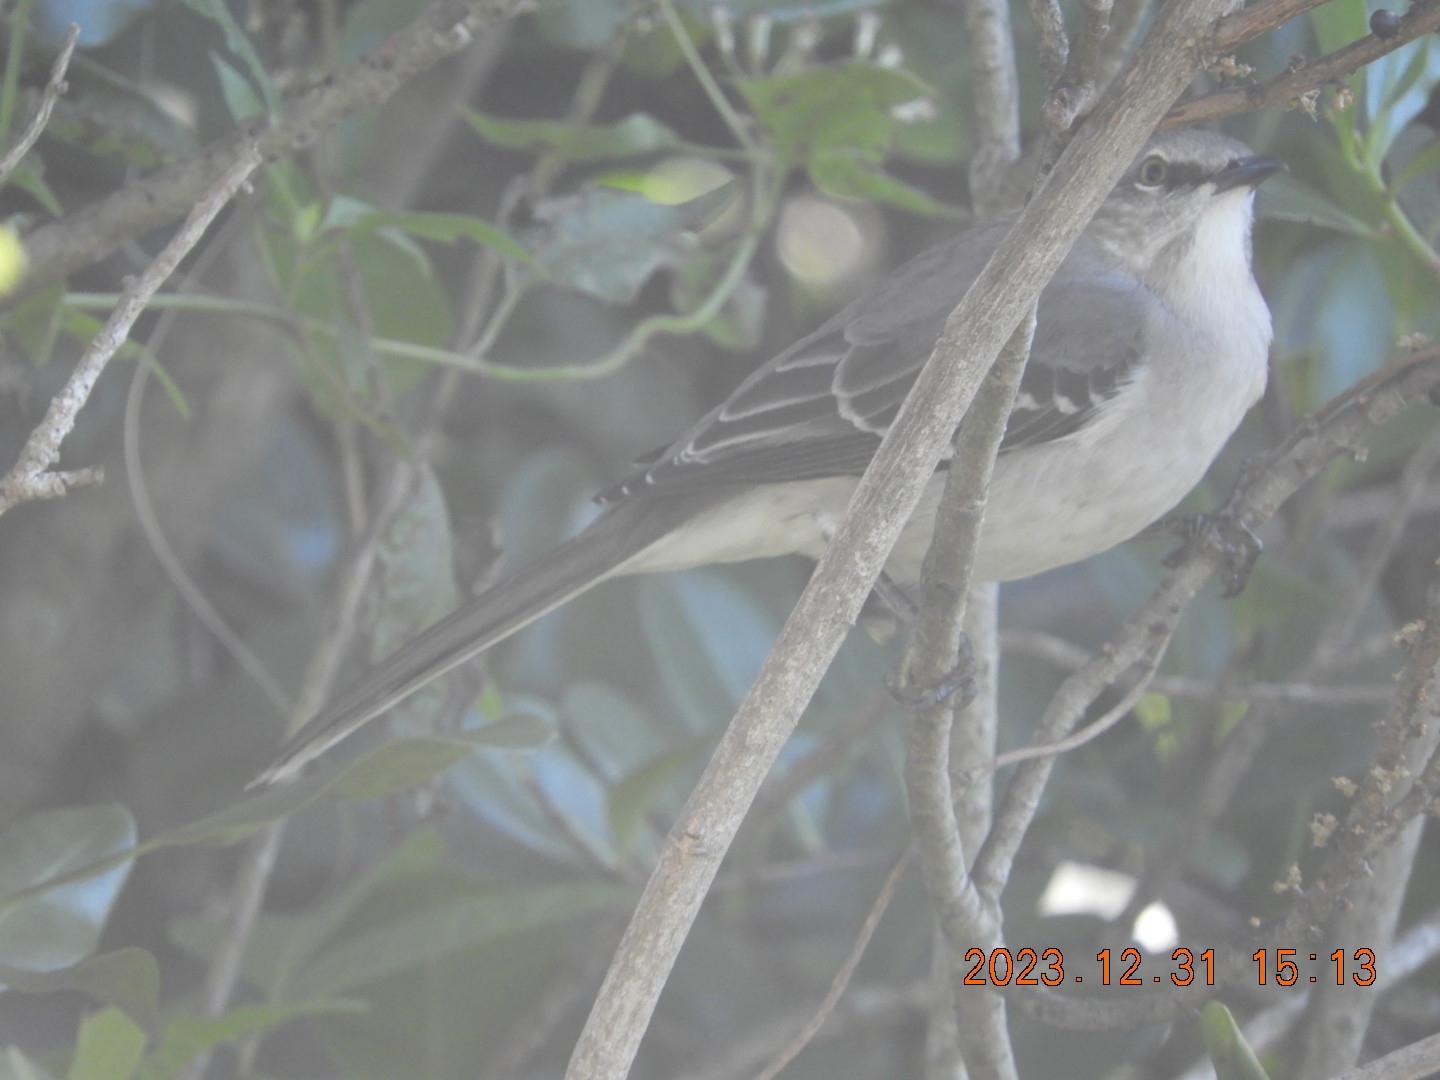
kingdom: Animalia
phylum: Chordata
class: Aves
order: Passeriformes
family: Mimidae
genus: Mimus
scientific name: Mimus polyglottos
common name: Northern mockingbird
